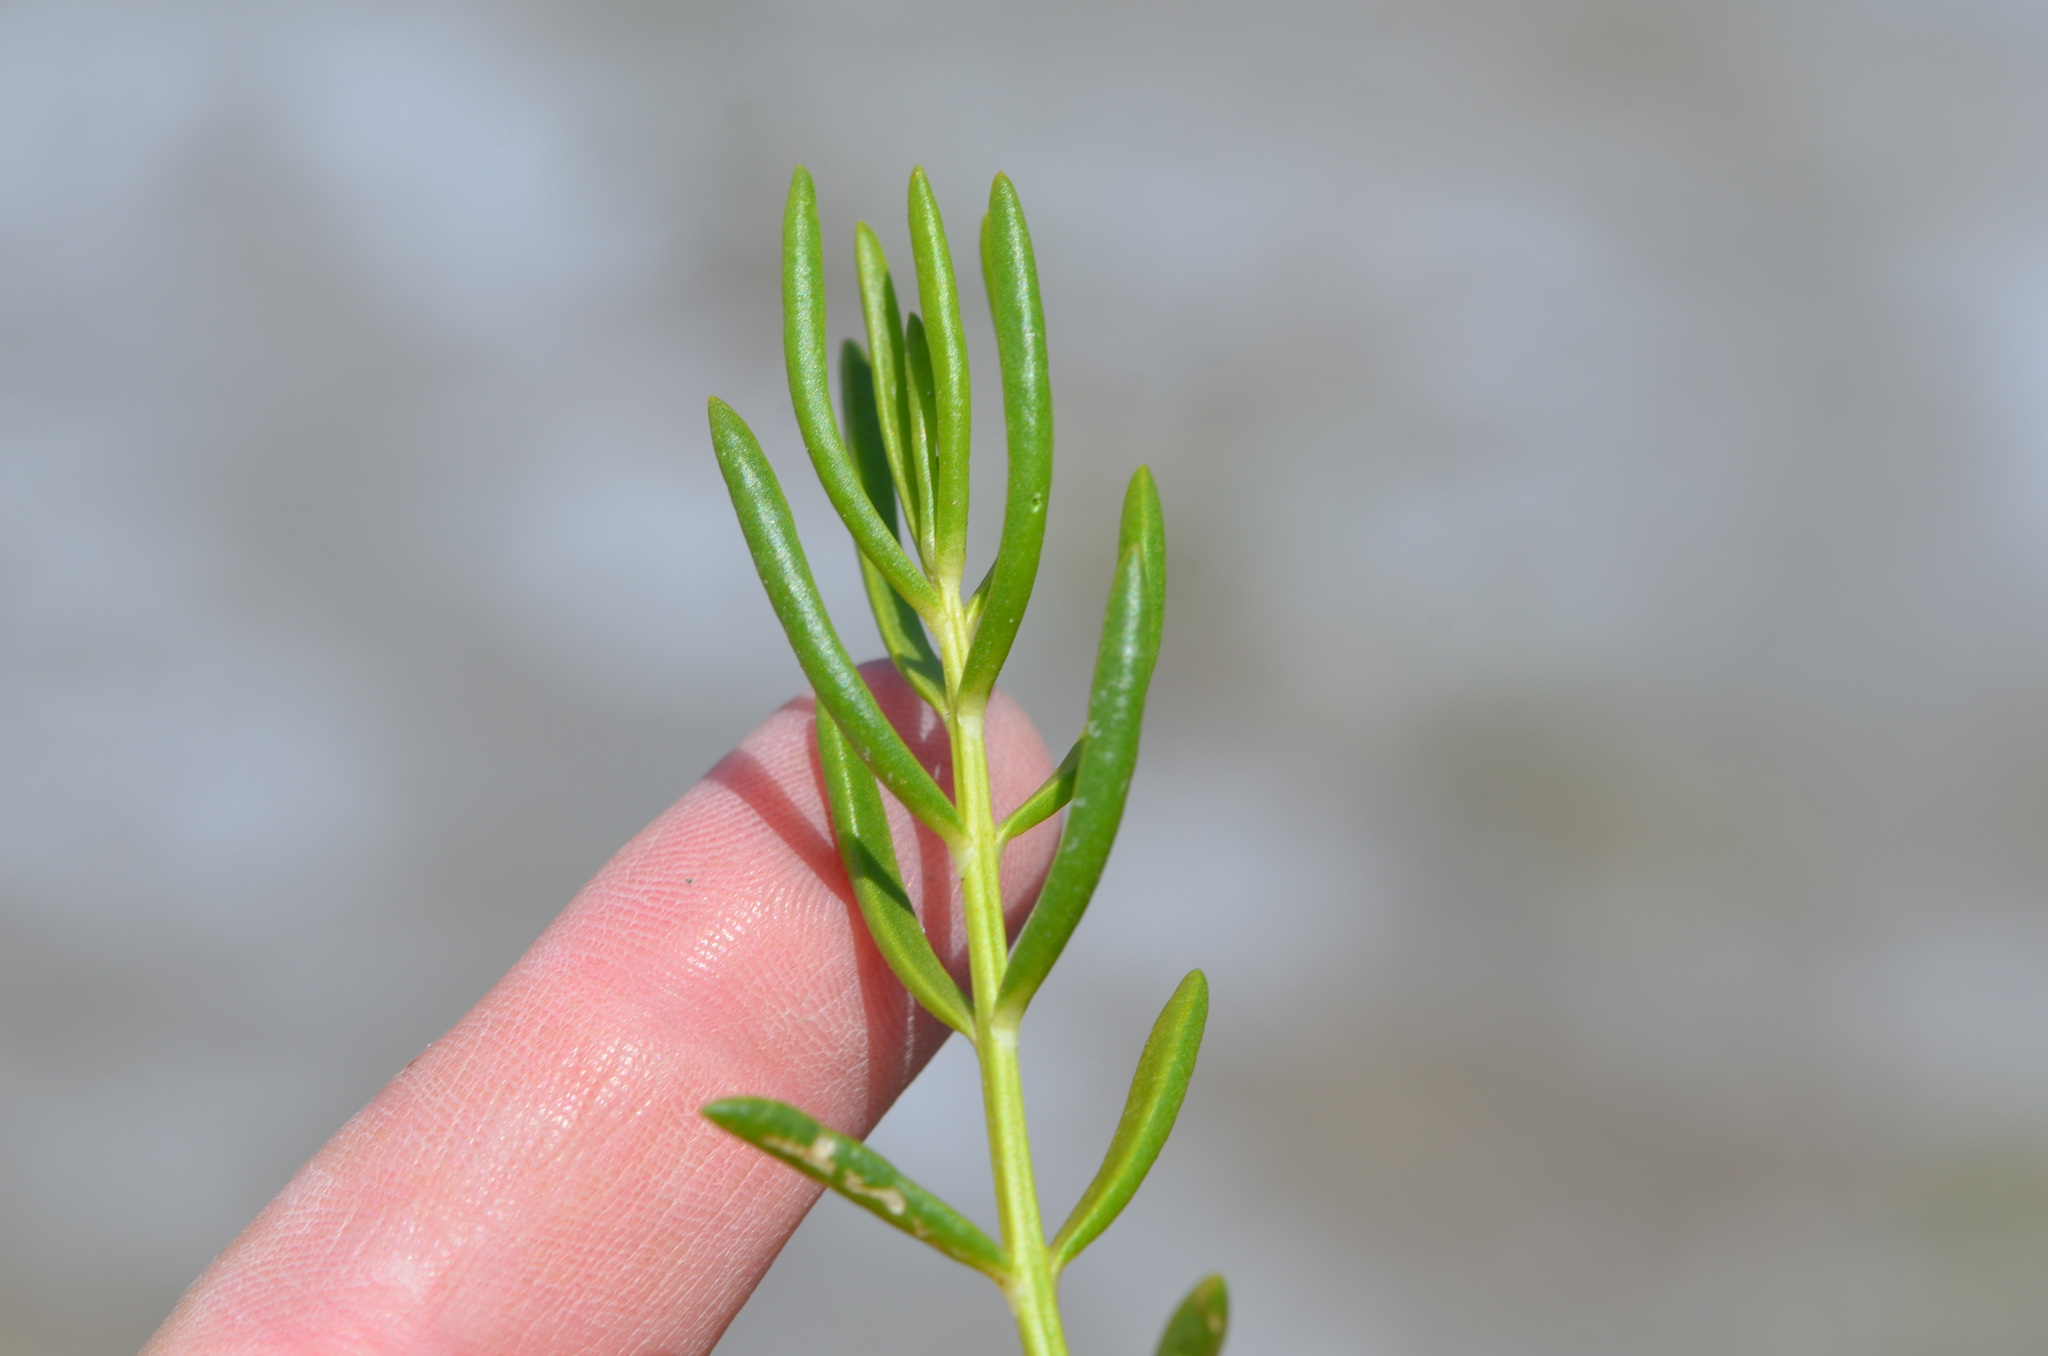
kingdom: Plantae
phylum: Tracheophyta
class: Magnoliopsida
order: Brassicales
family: Bataceae
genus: Batis
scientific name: Batis maritima
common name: Turtleweed
